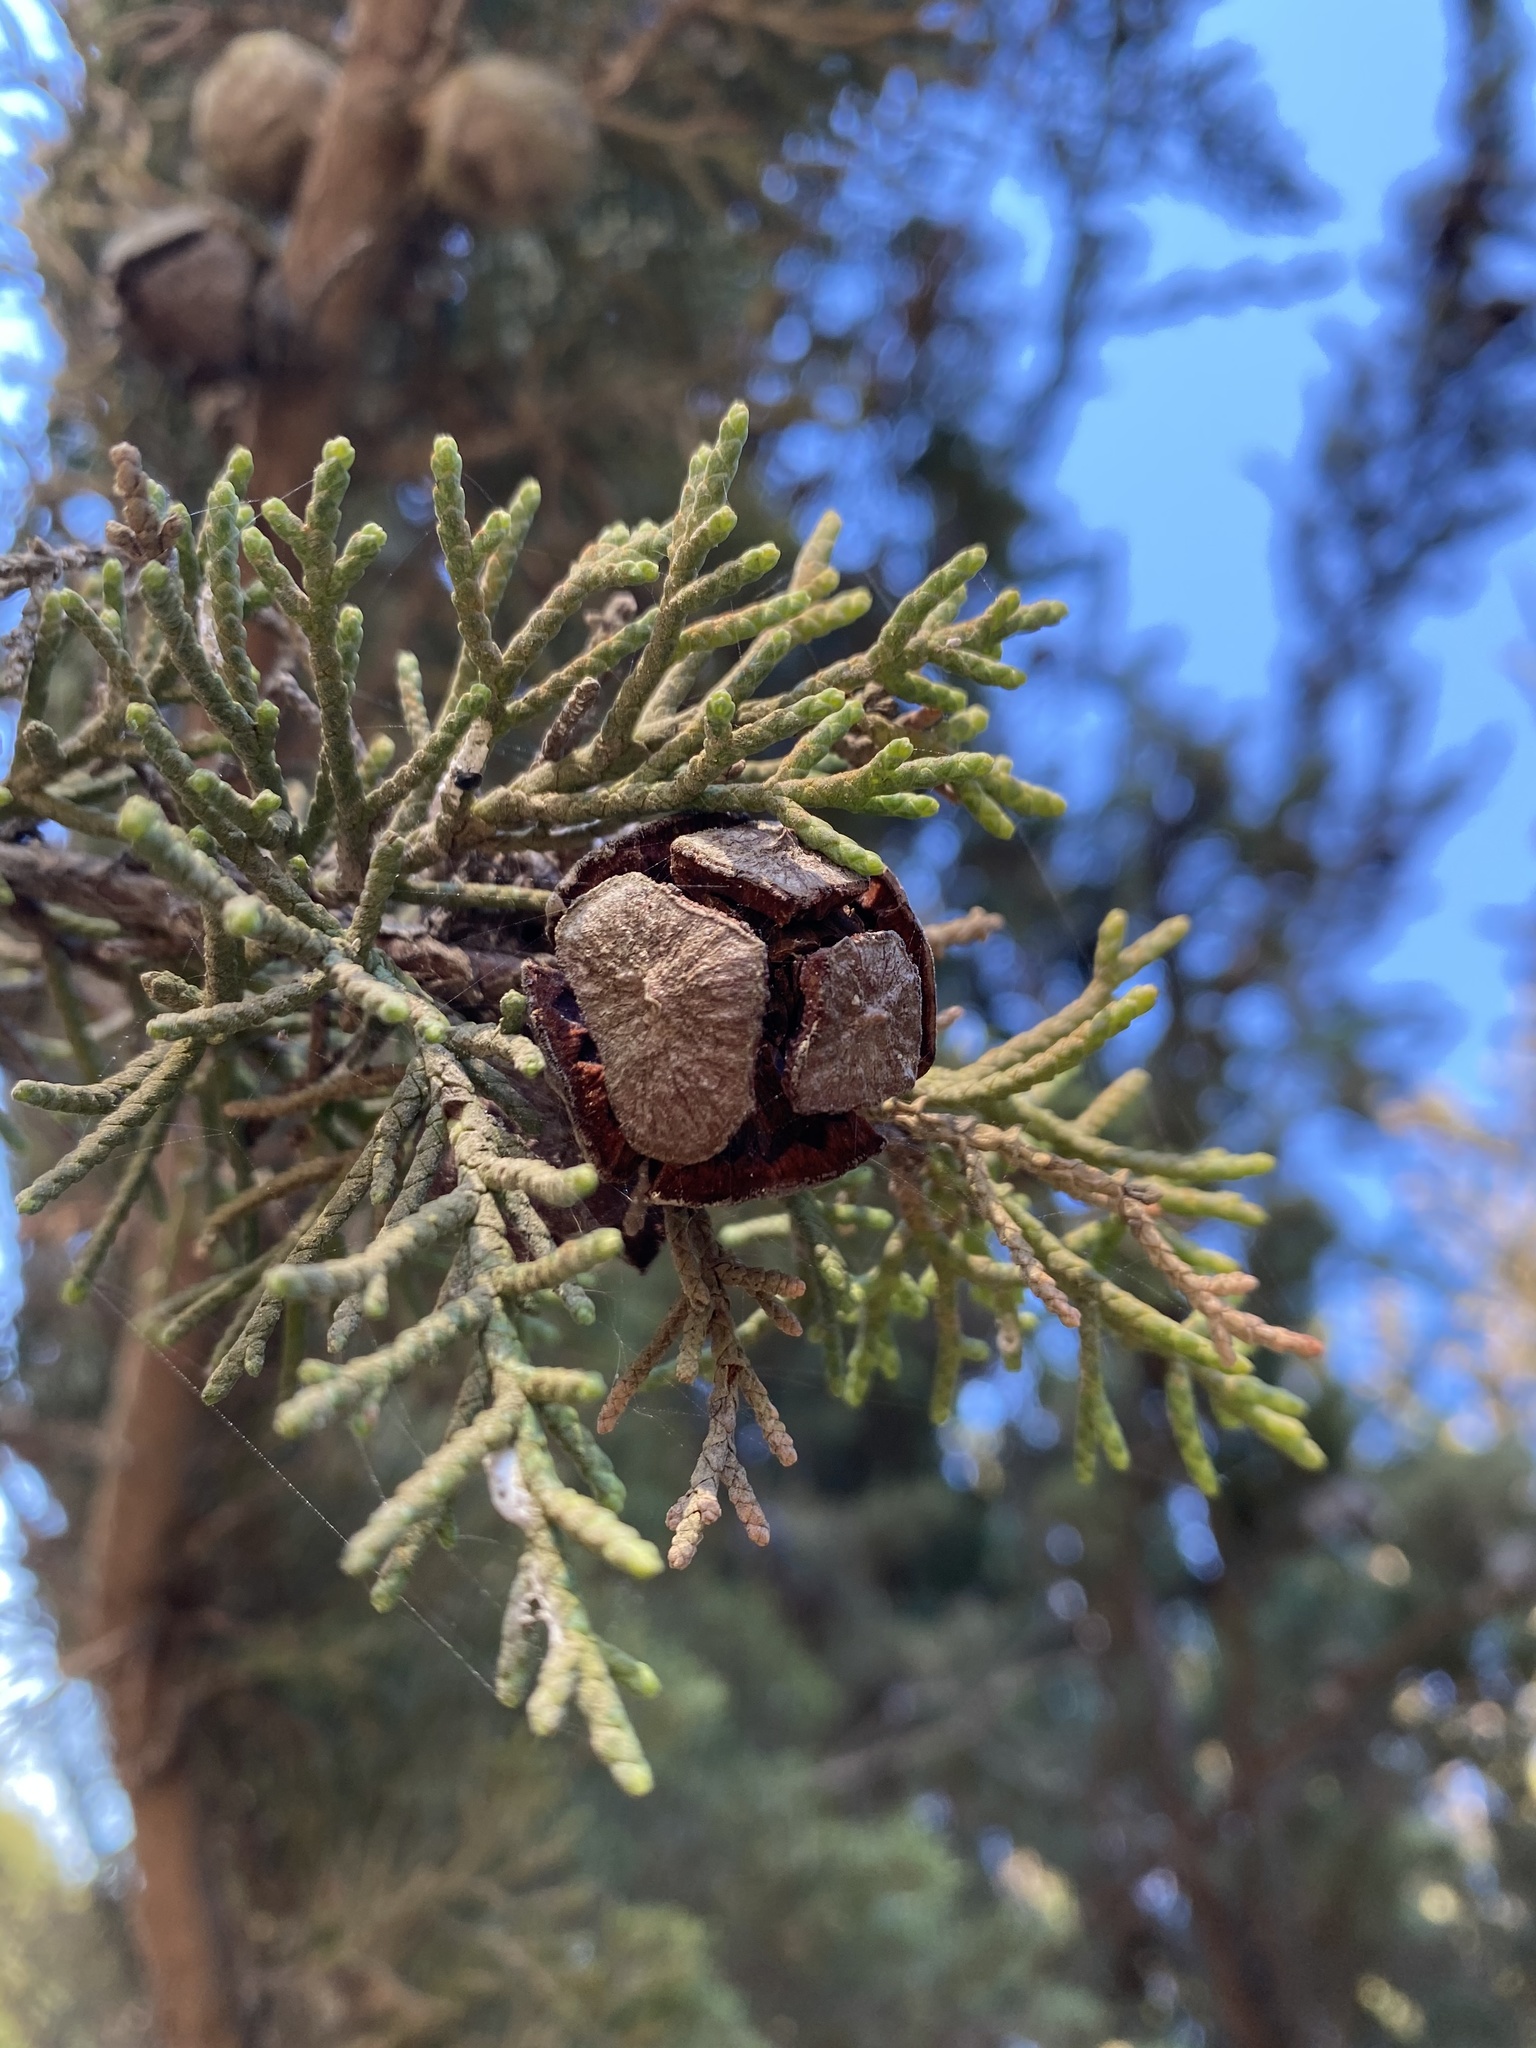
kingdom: Plantae
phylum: Tracheophyta
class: Pinopsida
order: Pinales
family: Cupressaceae
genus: Cupressus
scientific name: Cupressus macrocarpa
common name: Monterey cypress
